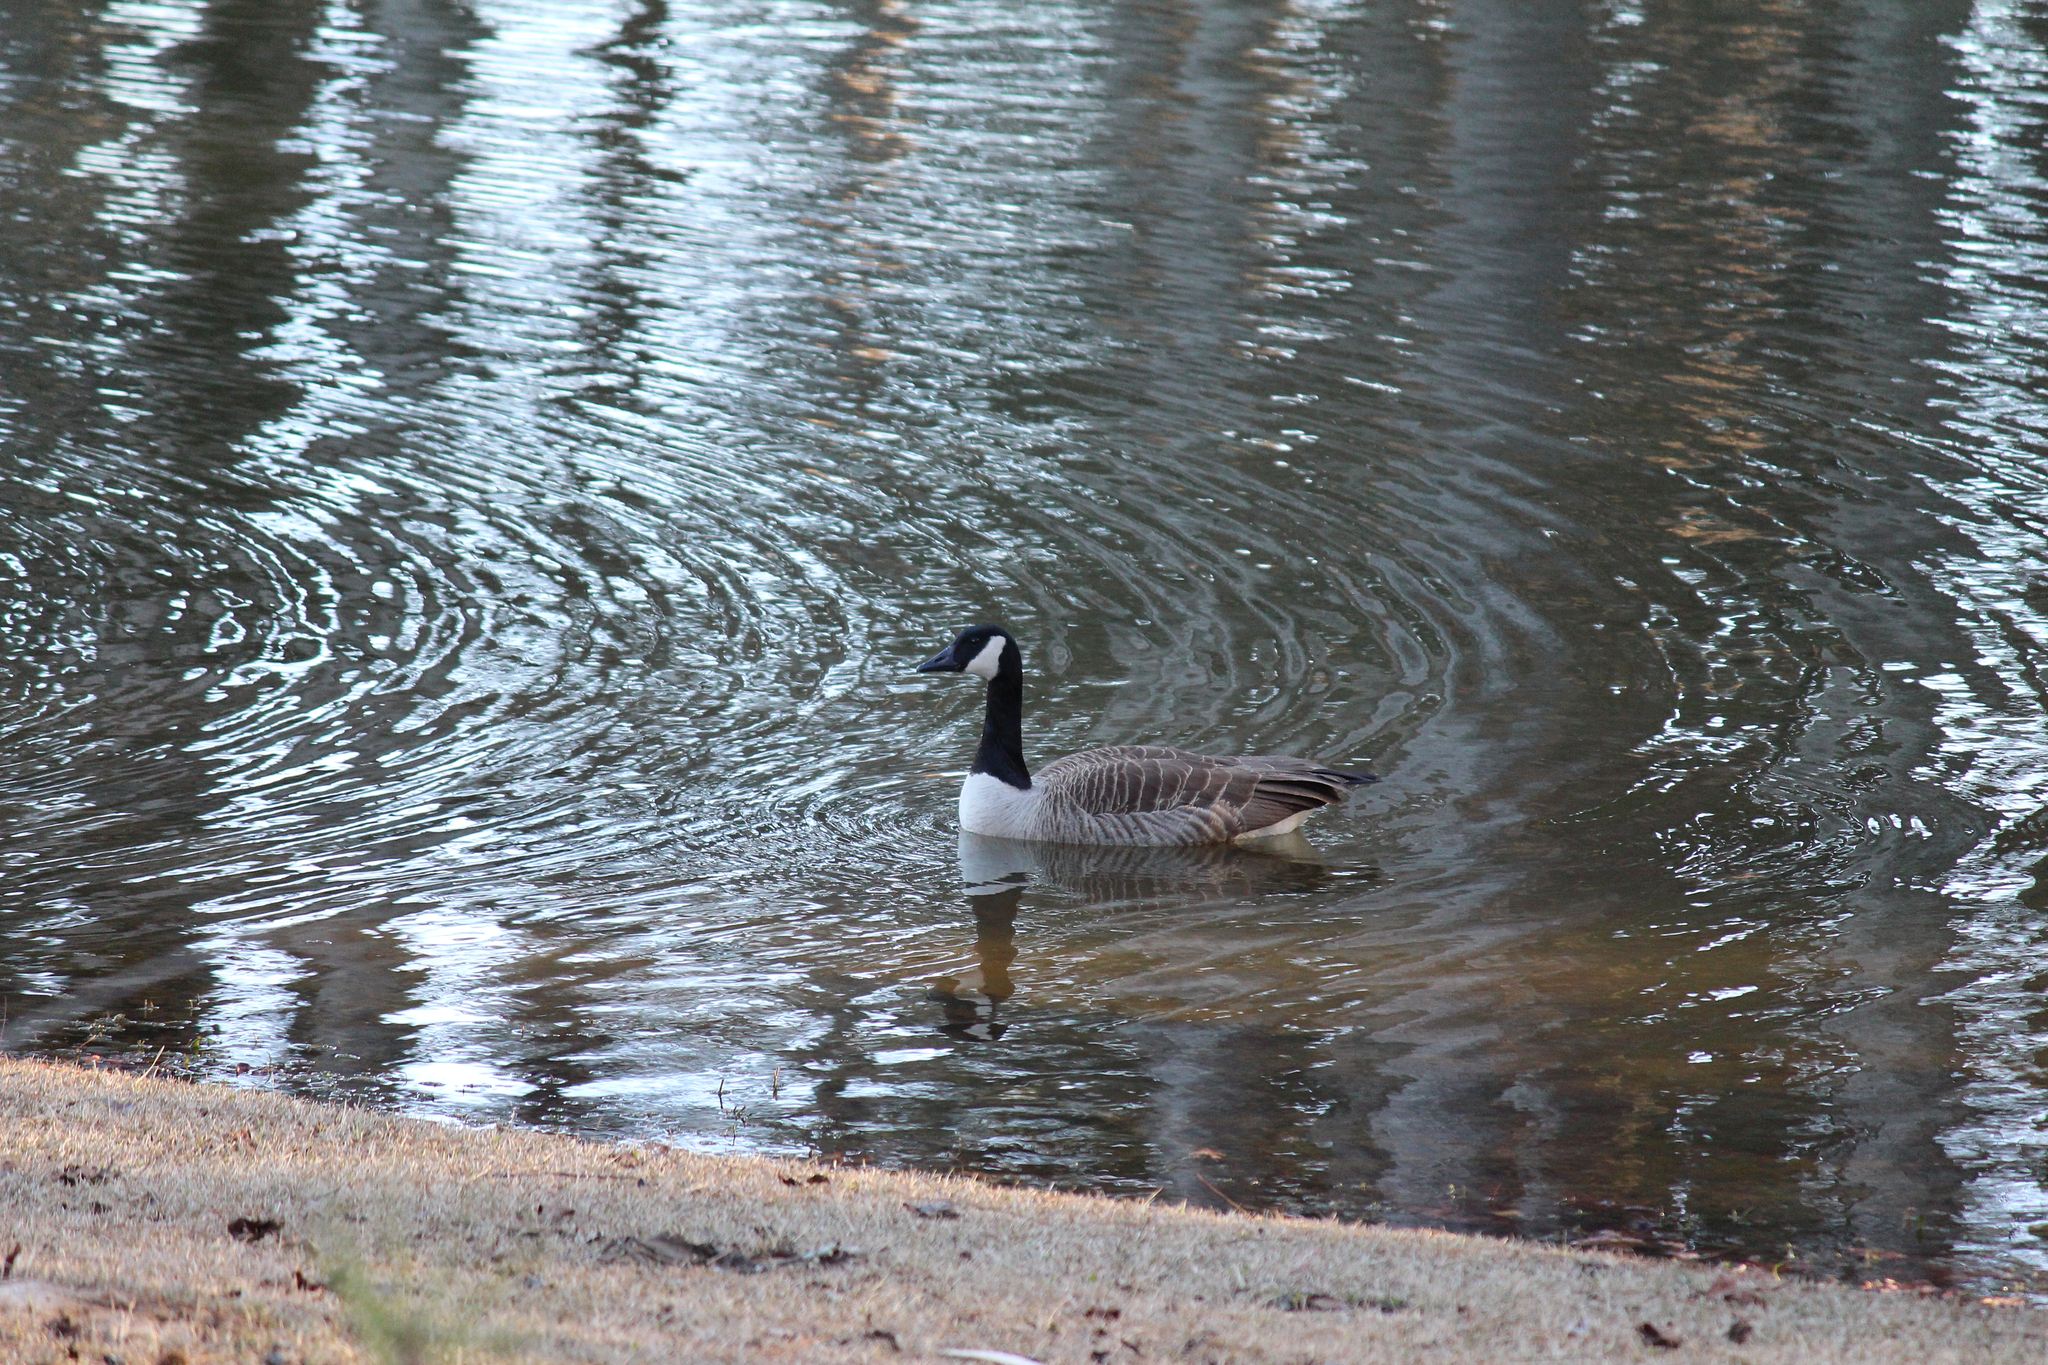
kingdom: Animalia
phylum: Chordata
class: Aves
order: Anseriformes
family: Anatidae
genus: Branta
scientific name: Branta canadensis
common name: Canada goose
